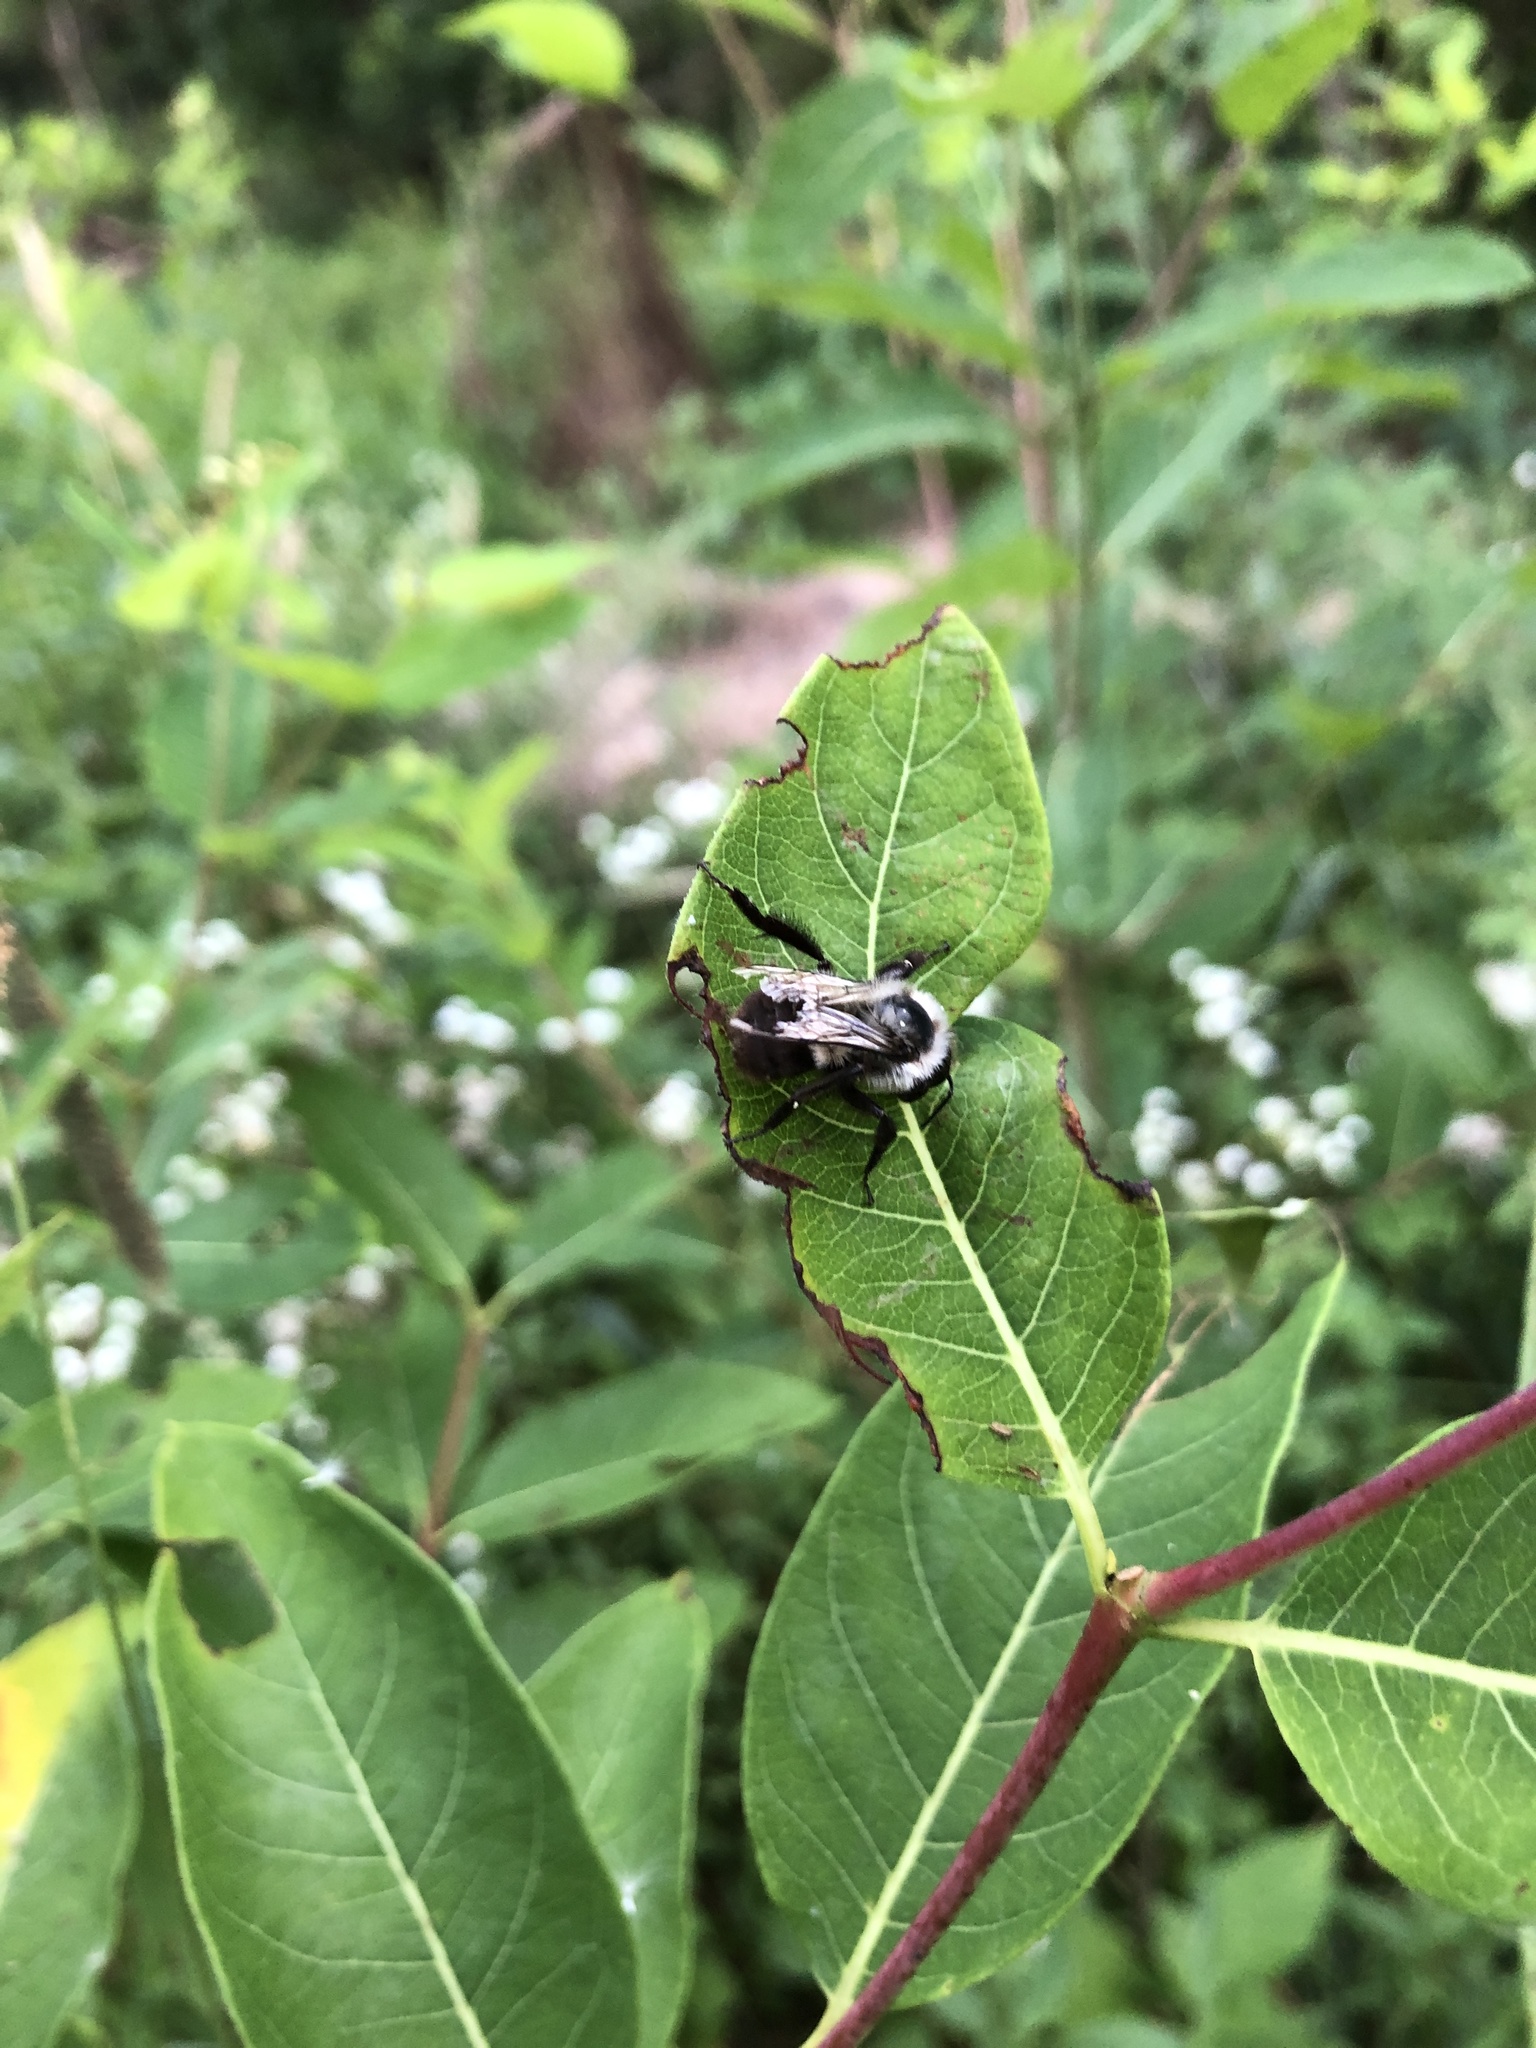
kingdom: Animalia
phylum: Arthropoda
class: Insecta
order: Hymenoptera
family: Apidae
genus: Bombus
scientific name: Bombus impatiens
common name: Common eastern bumble bee
